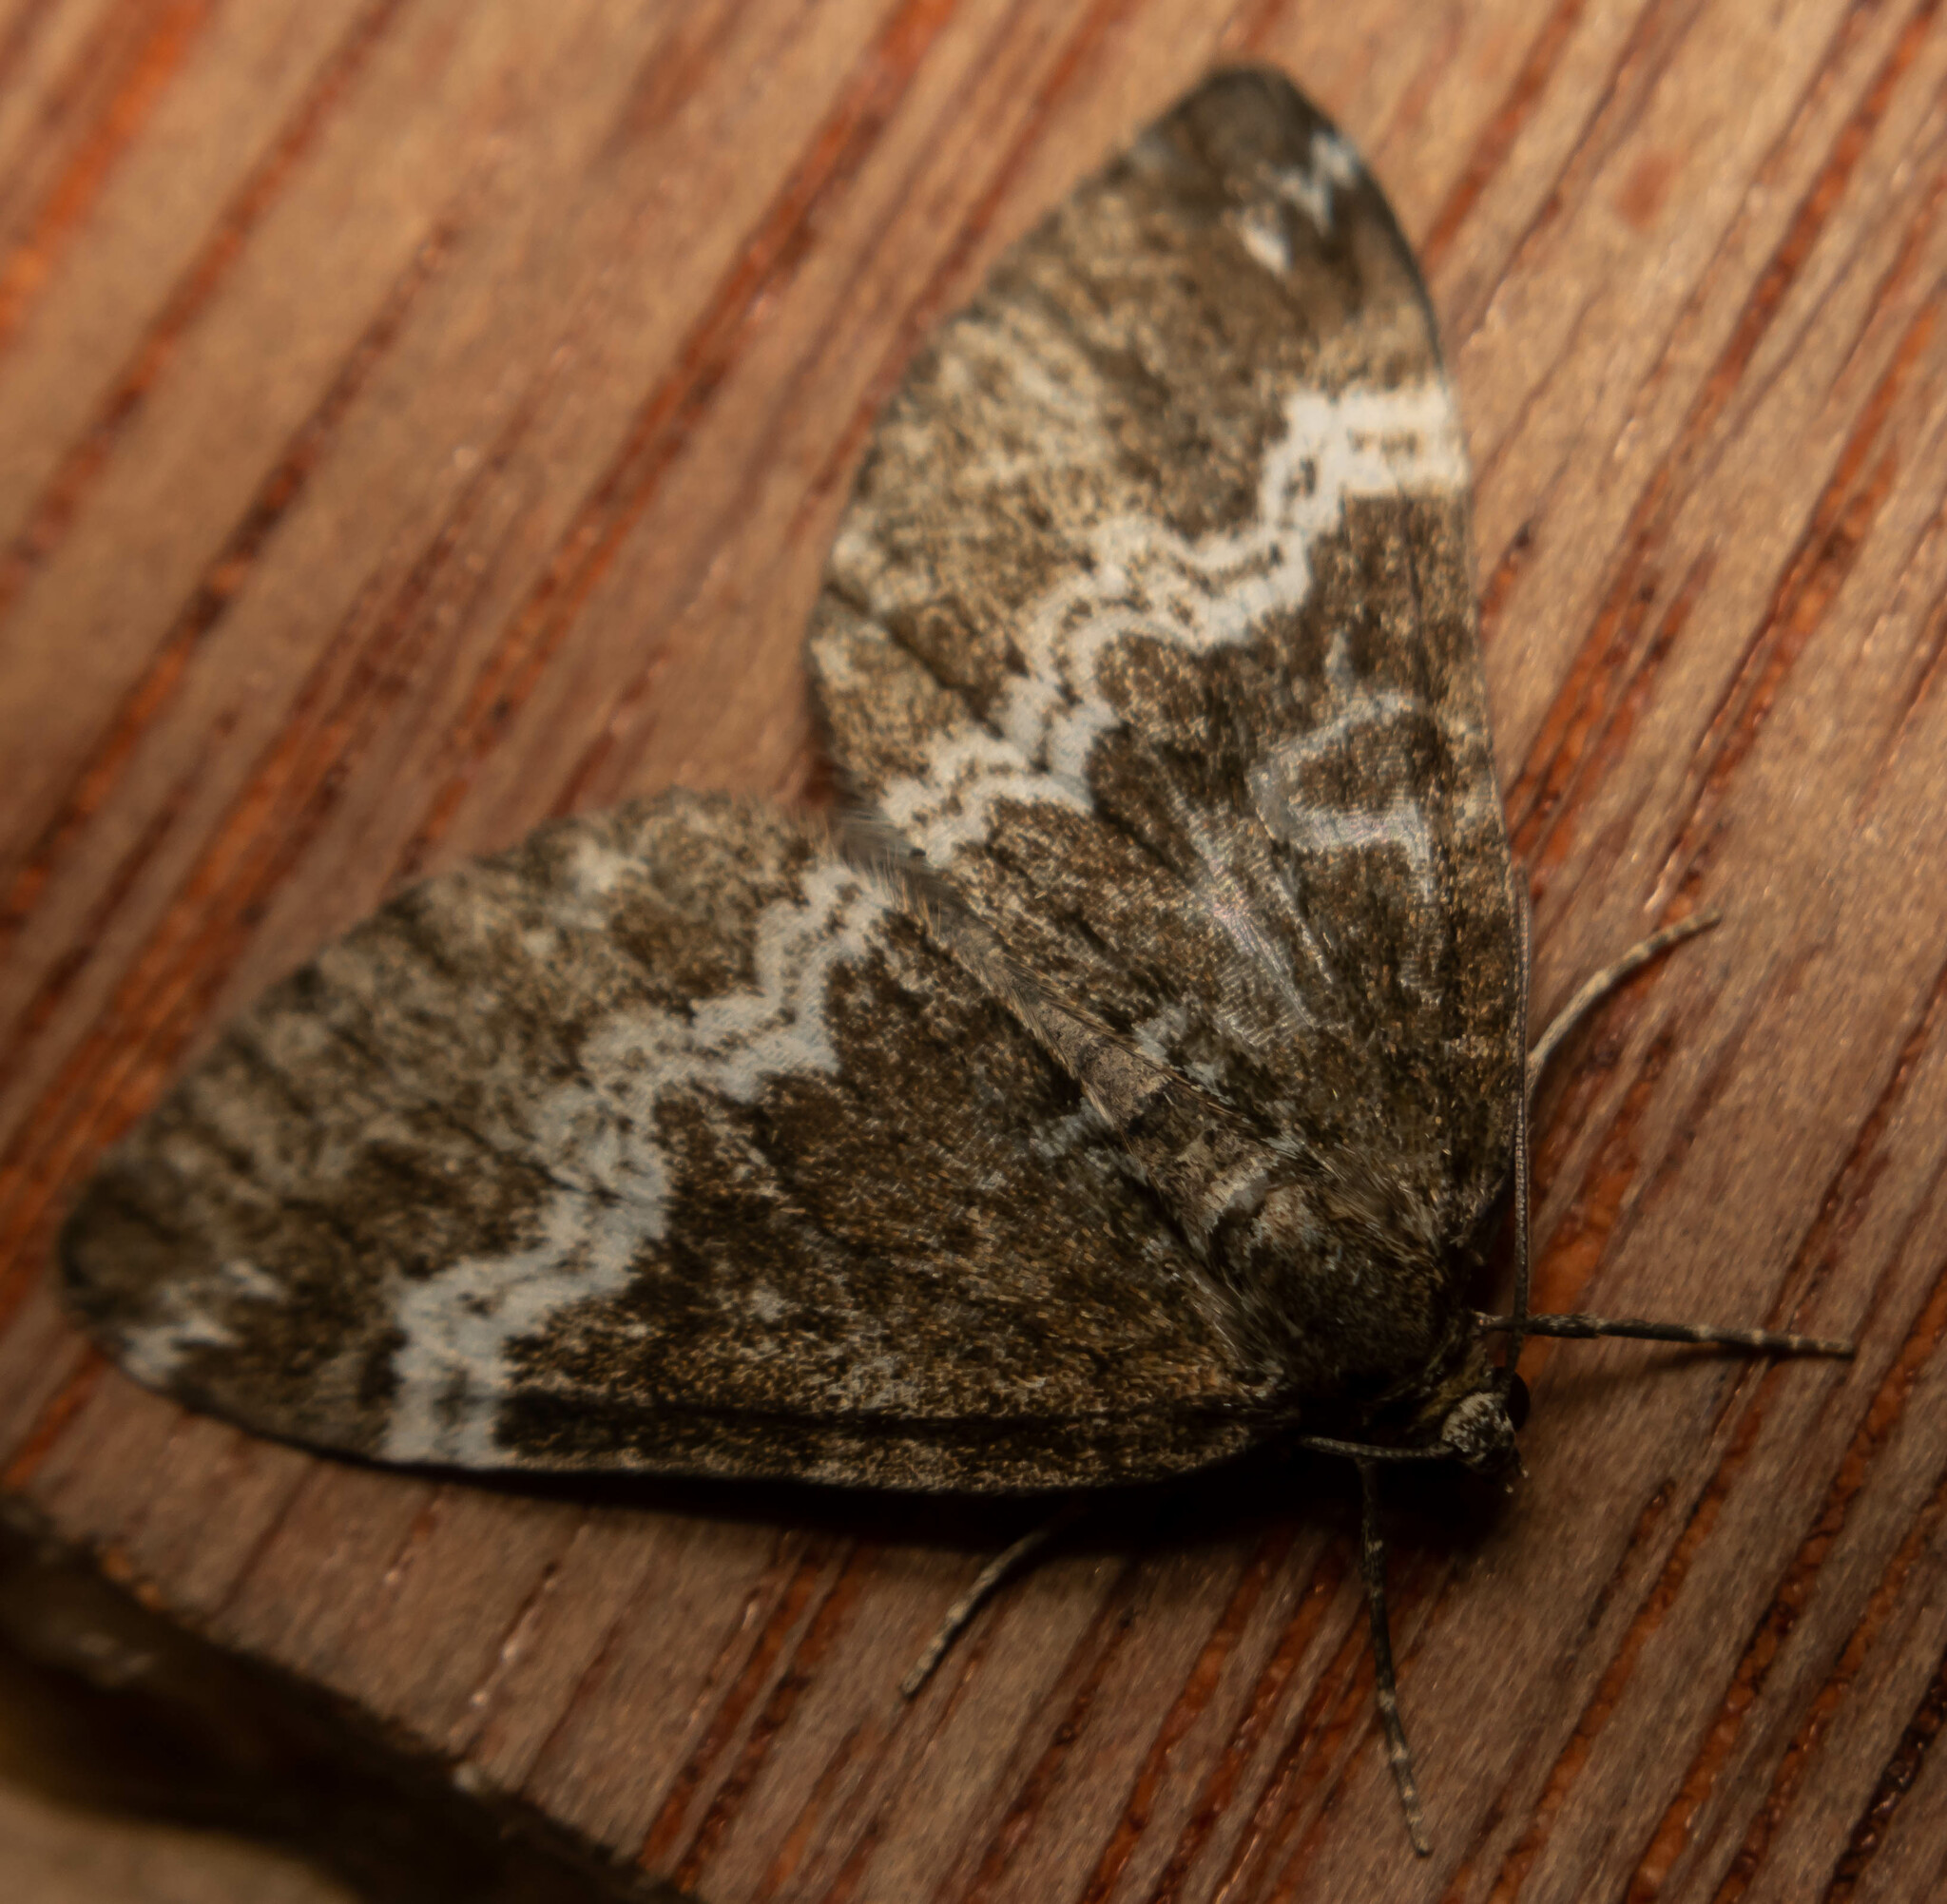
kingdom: Animalia
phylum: Arthropoda
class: Insecta
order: Lepidoptera
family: Geometridae
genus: Perizoma
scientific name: Perizoma affinitata
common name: Rivulet
